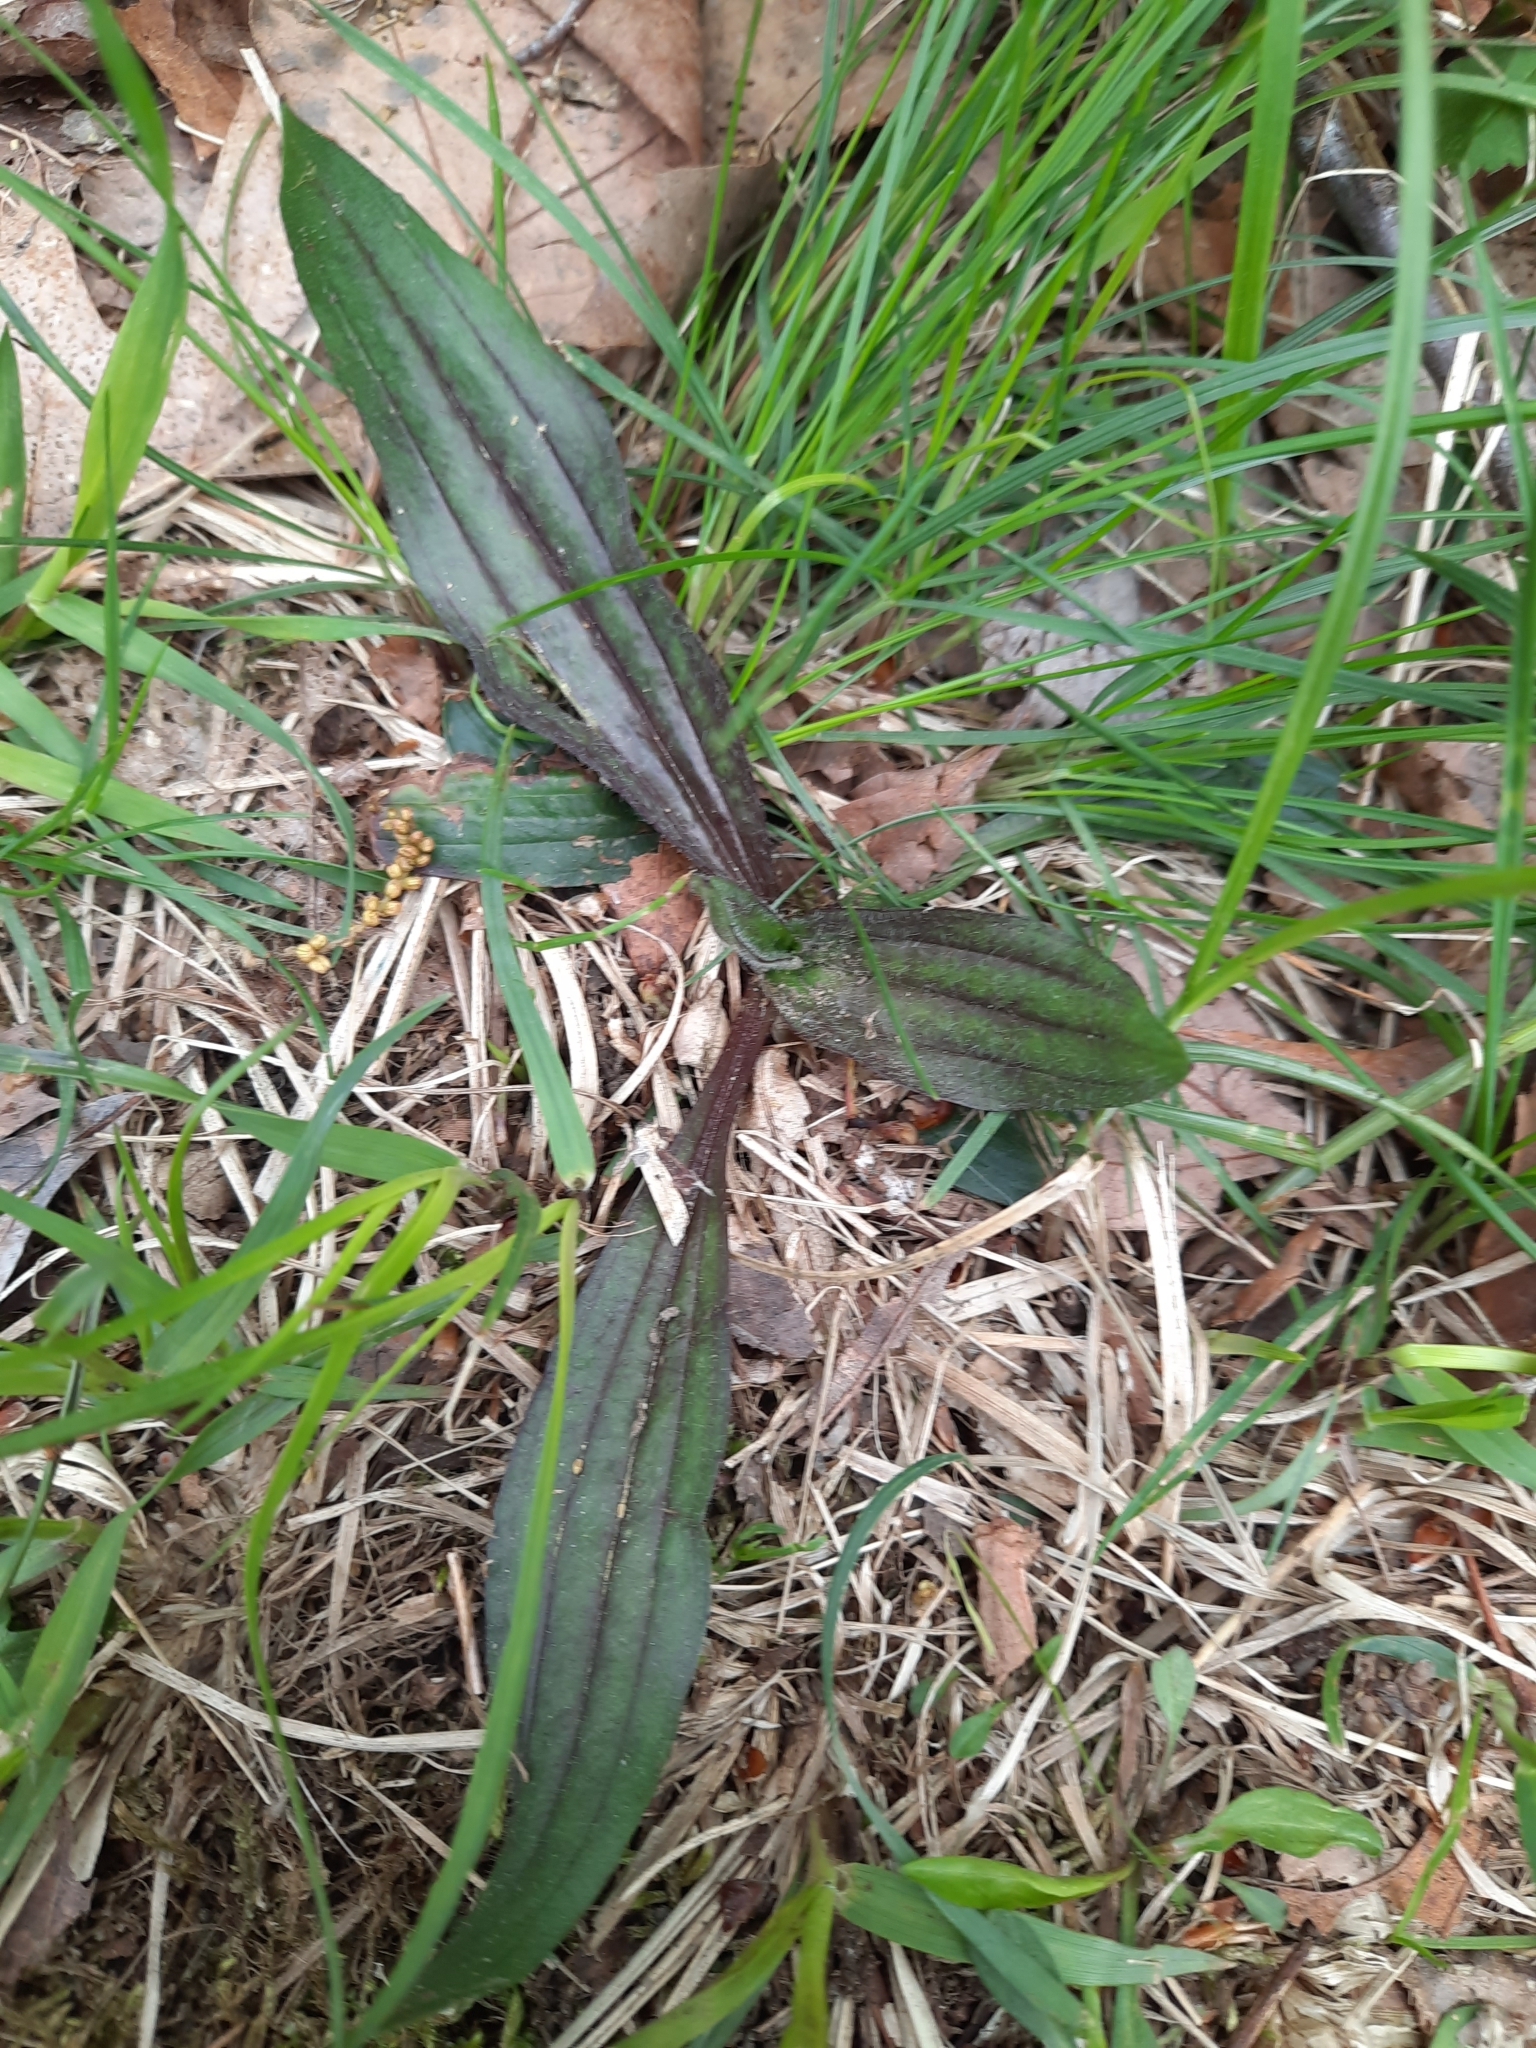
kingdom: Plantae
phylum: Tracheophyta
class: Magnoliopsida
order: Lamiales
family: Plantaginaceae
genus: Plantago
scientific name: Plantago lanceolata
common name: Ribwort plantain
